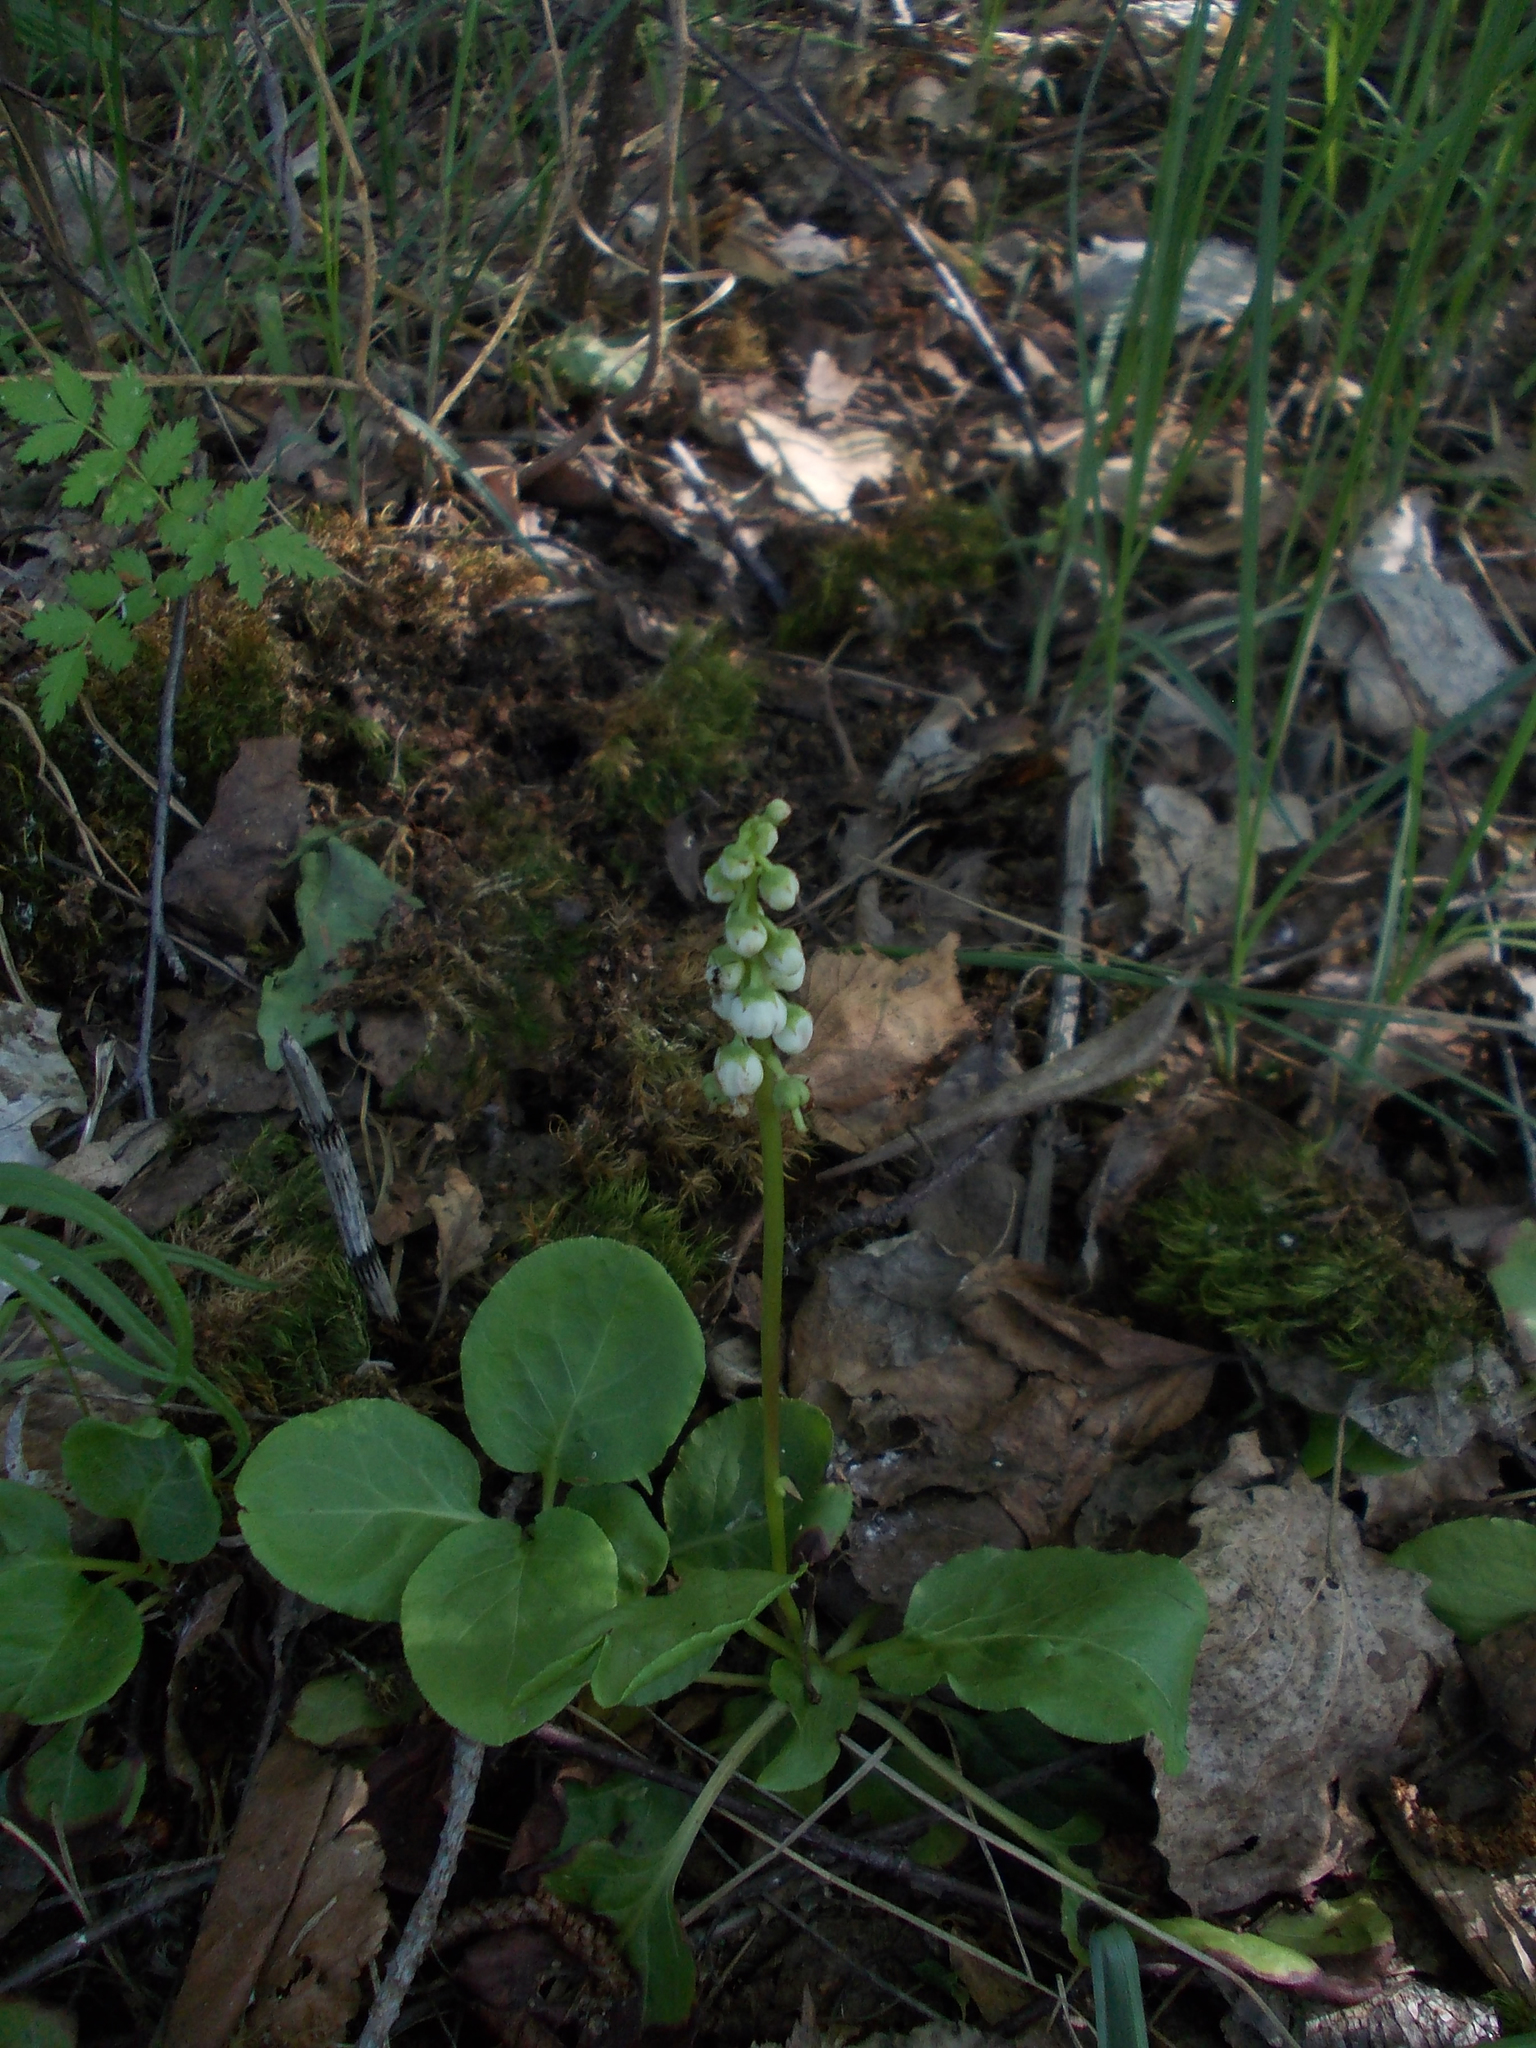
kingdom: Plantae
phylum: Tracheophyta
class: Magnoliopsida
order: Ericales
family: Ericaceae
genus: Pyrola
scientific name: Pyrola minor
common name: Common wintergreen
